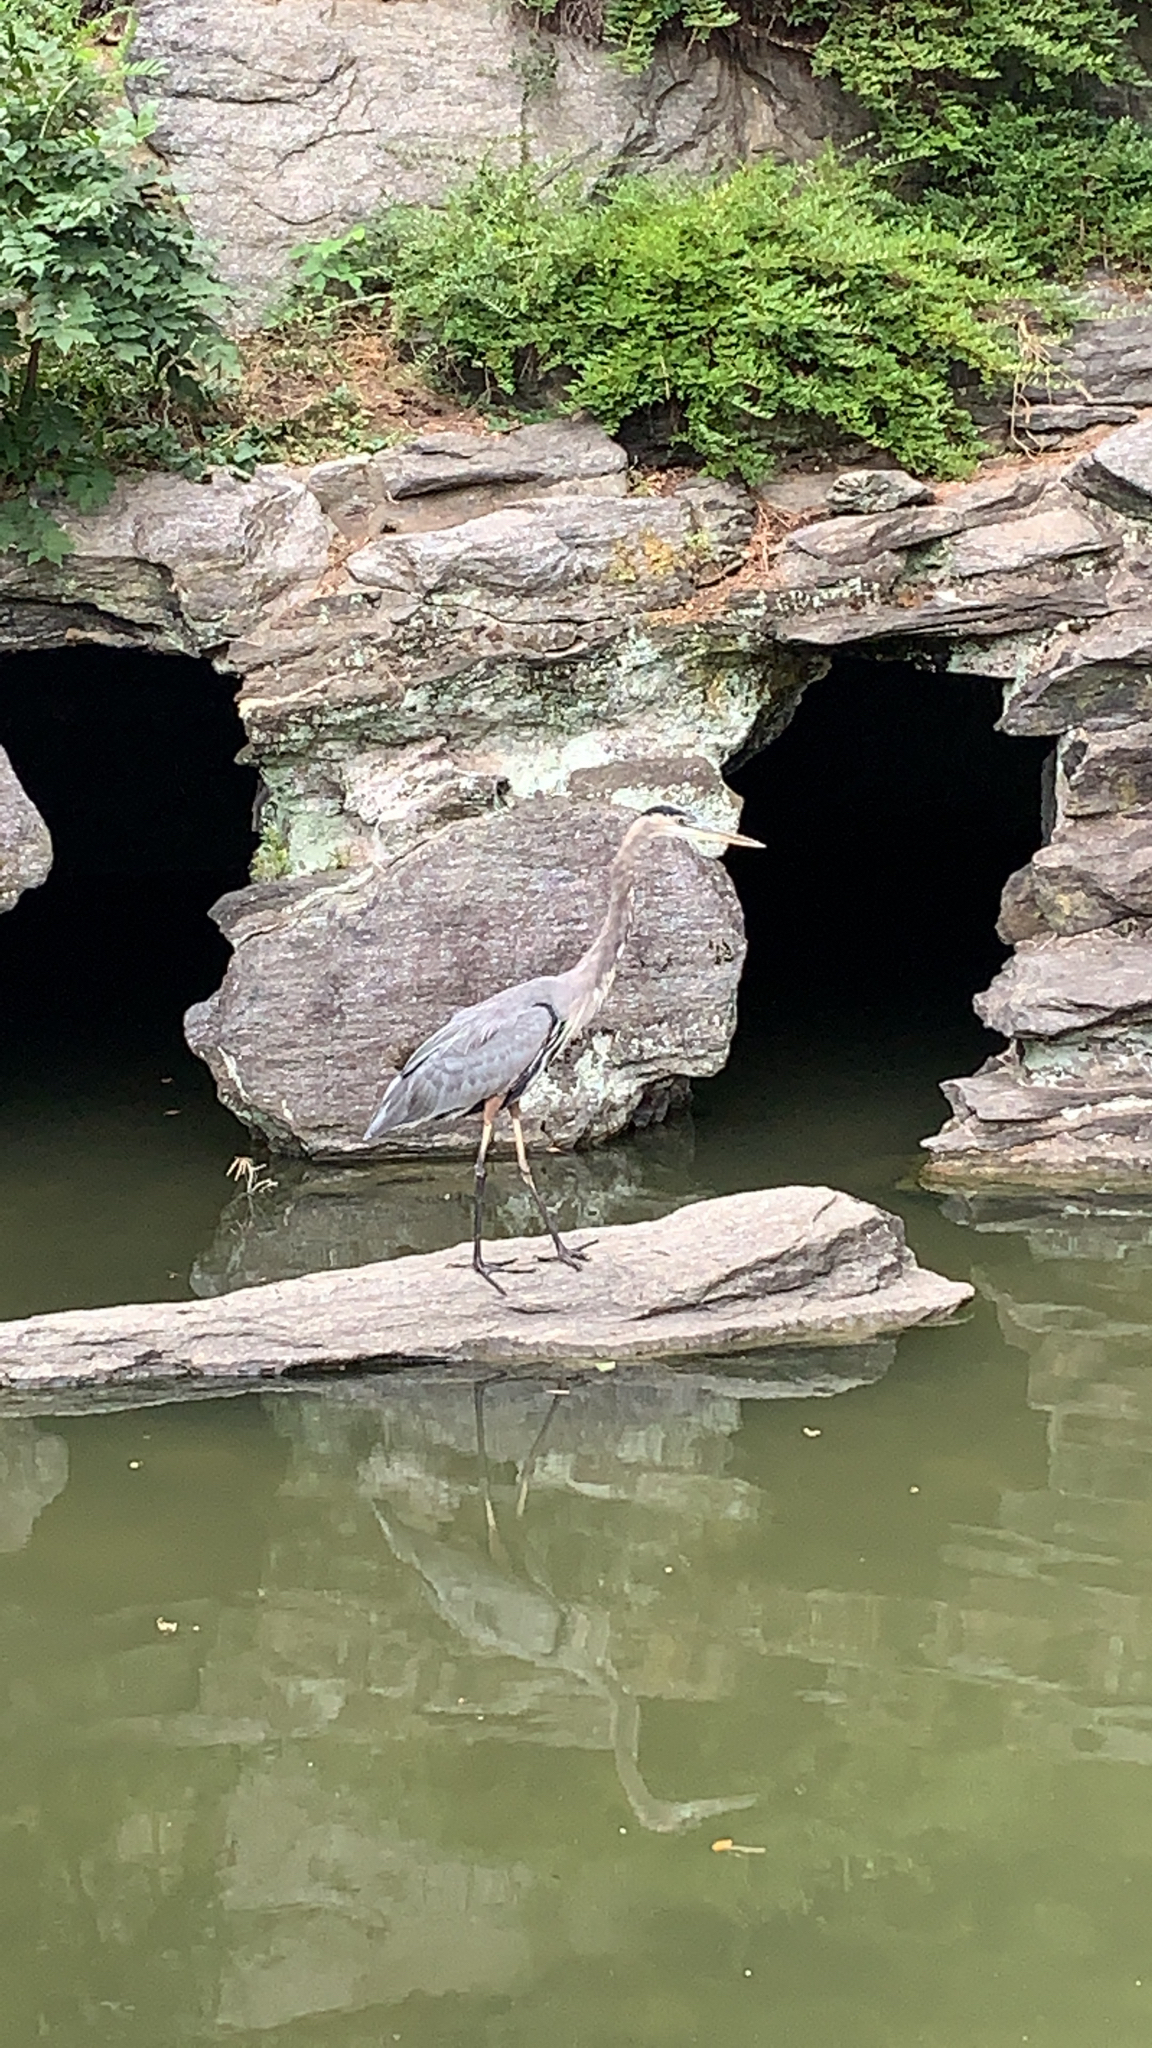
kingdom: Animalia
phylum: Chordata
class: Aves
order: Pelecaniformes
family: Ardeidae
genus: Ardea
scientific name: Ardea herodias
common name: Great blue heron
